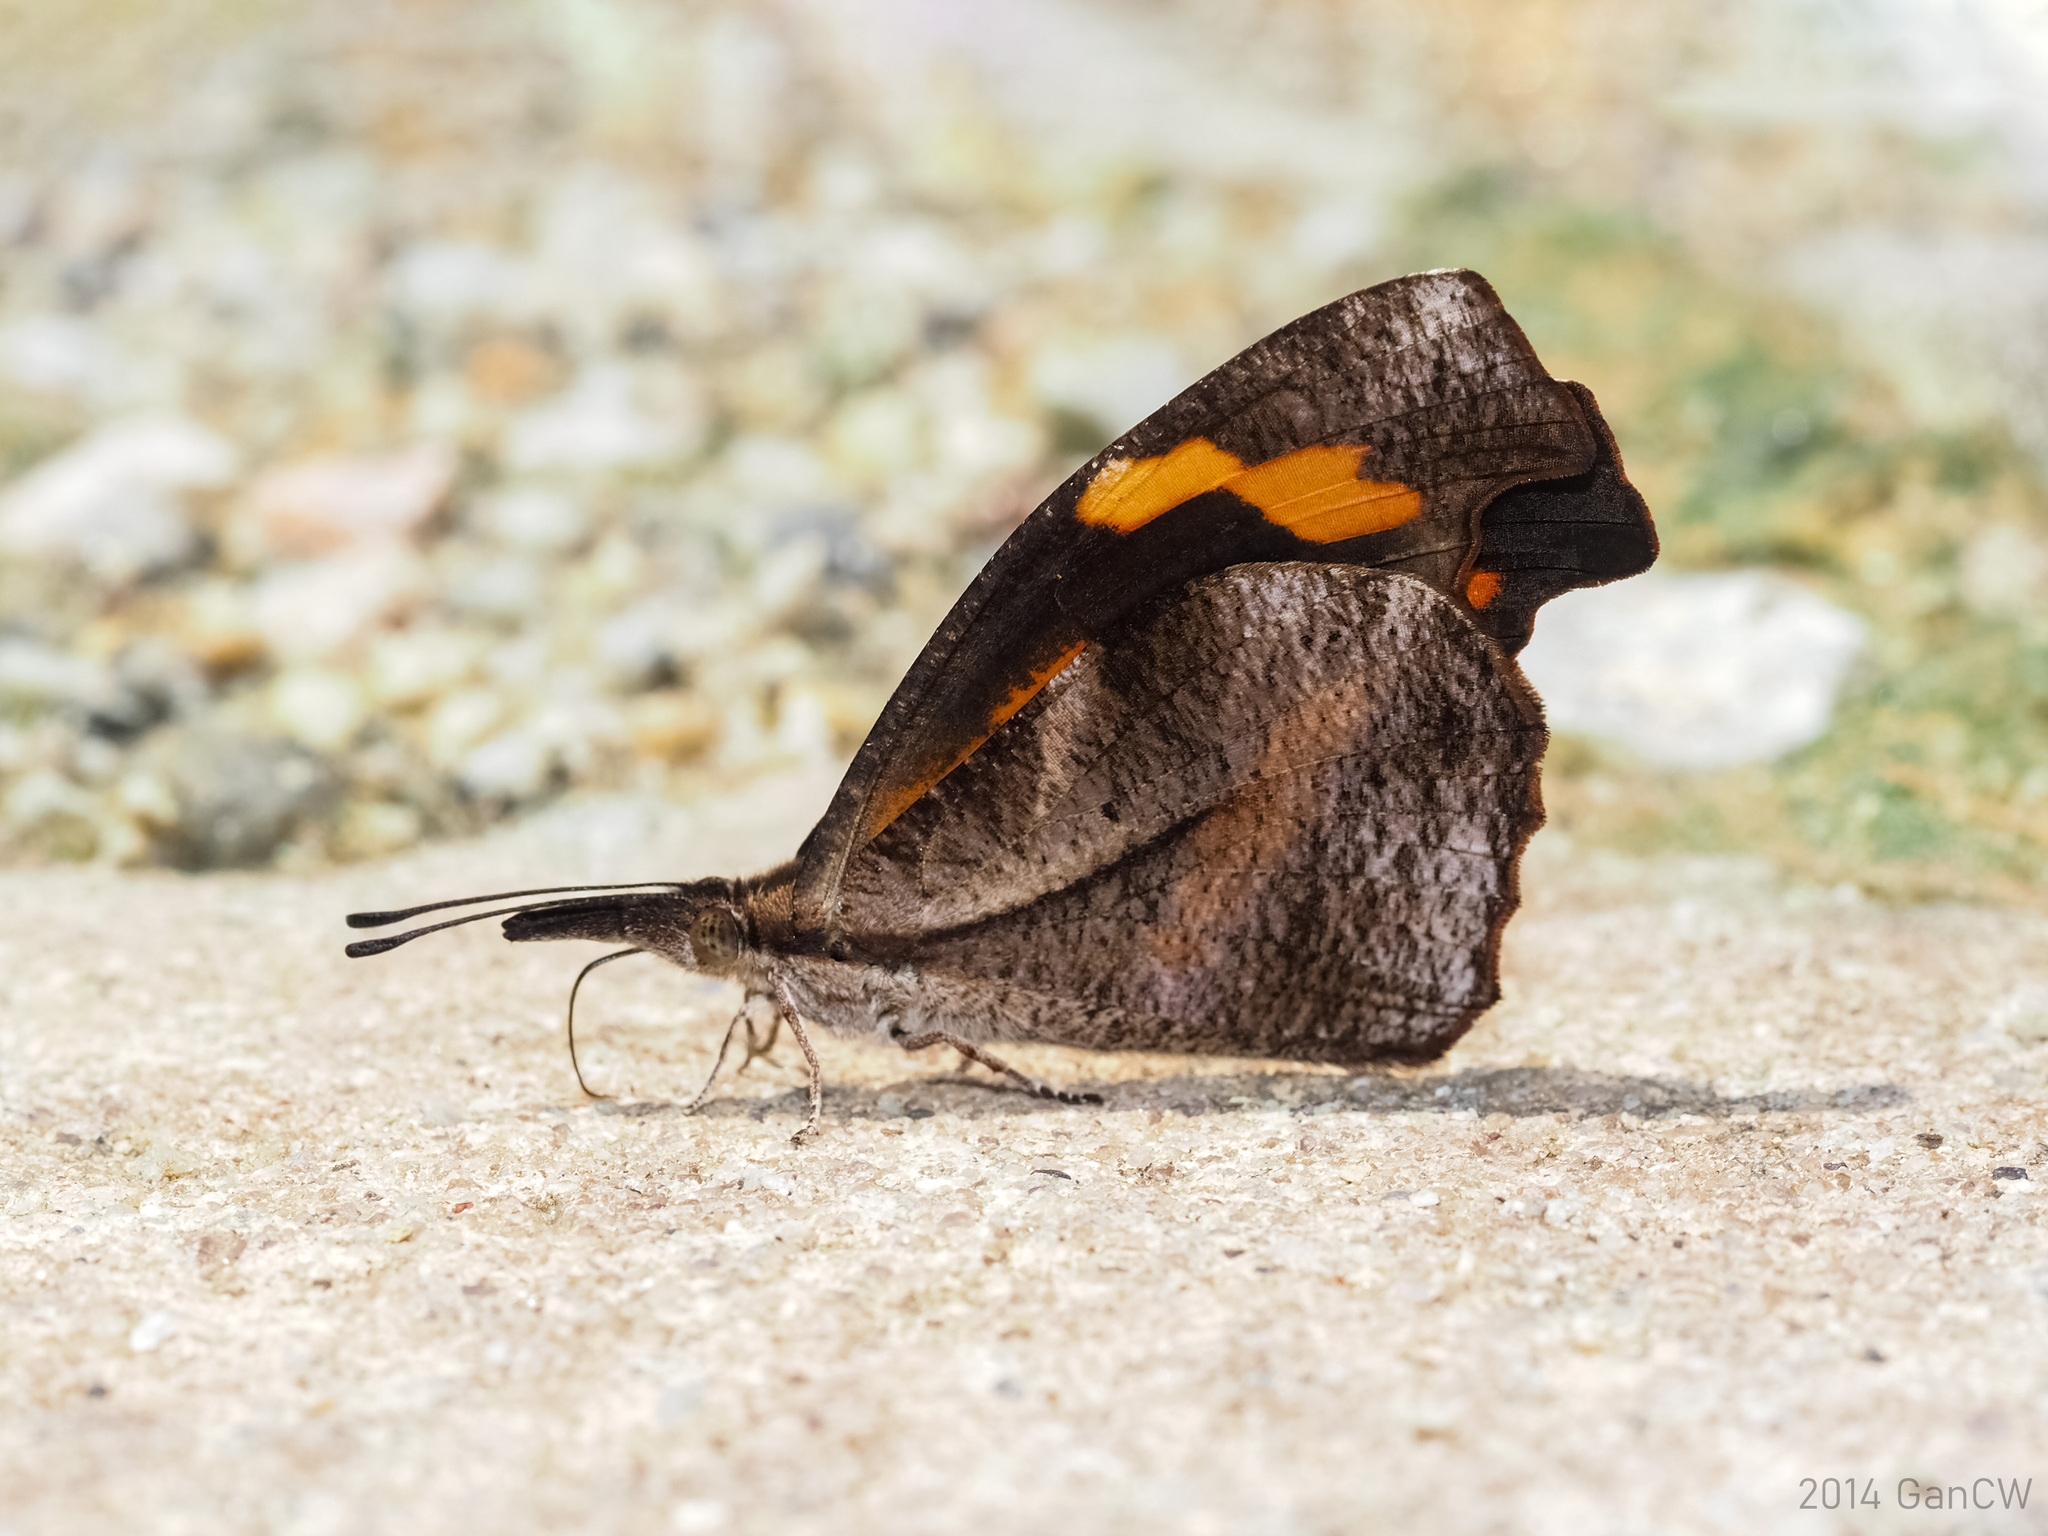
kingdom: Animalia
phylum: Arthropoda
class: Insecta
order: Lepidoptera
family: Nymphalidae
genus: Libythea
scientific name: Libythea myrrha
